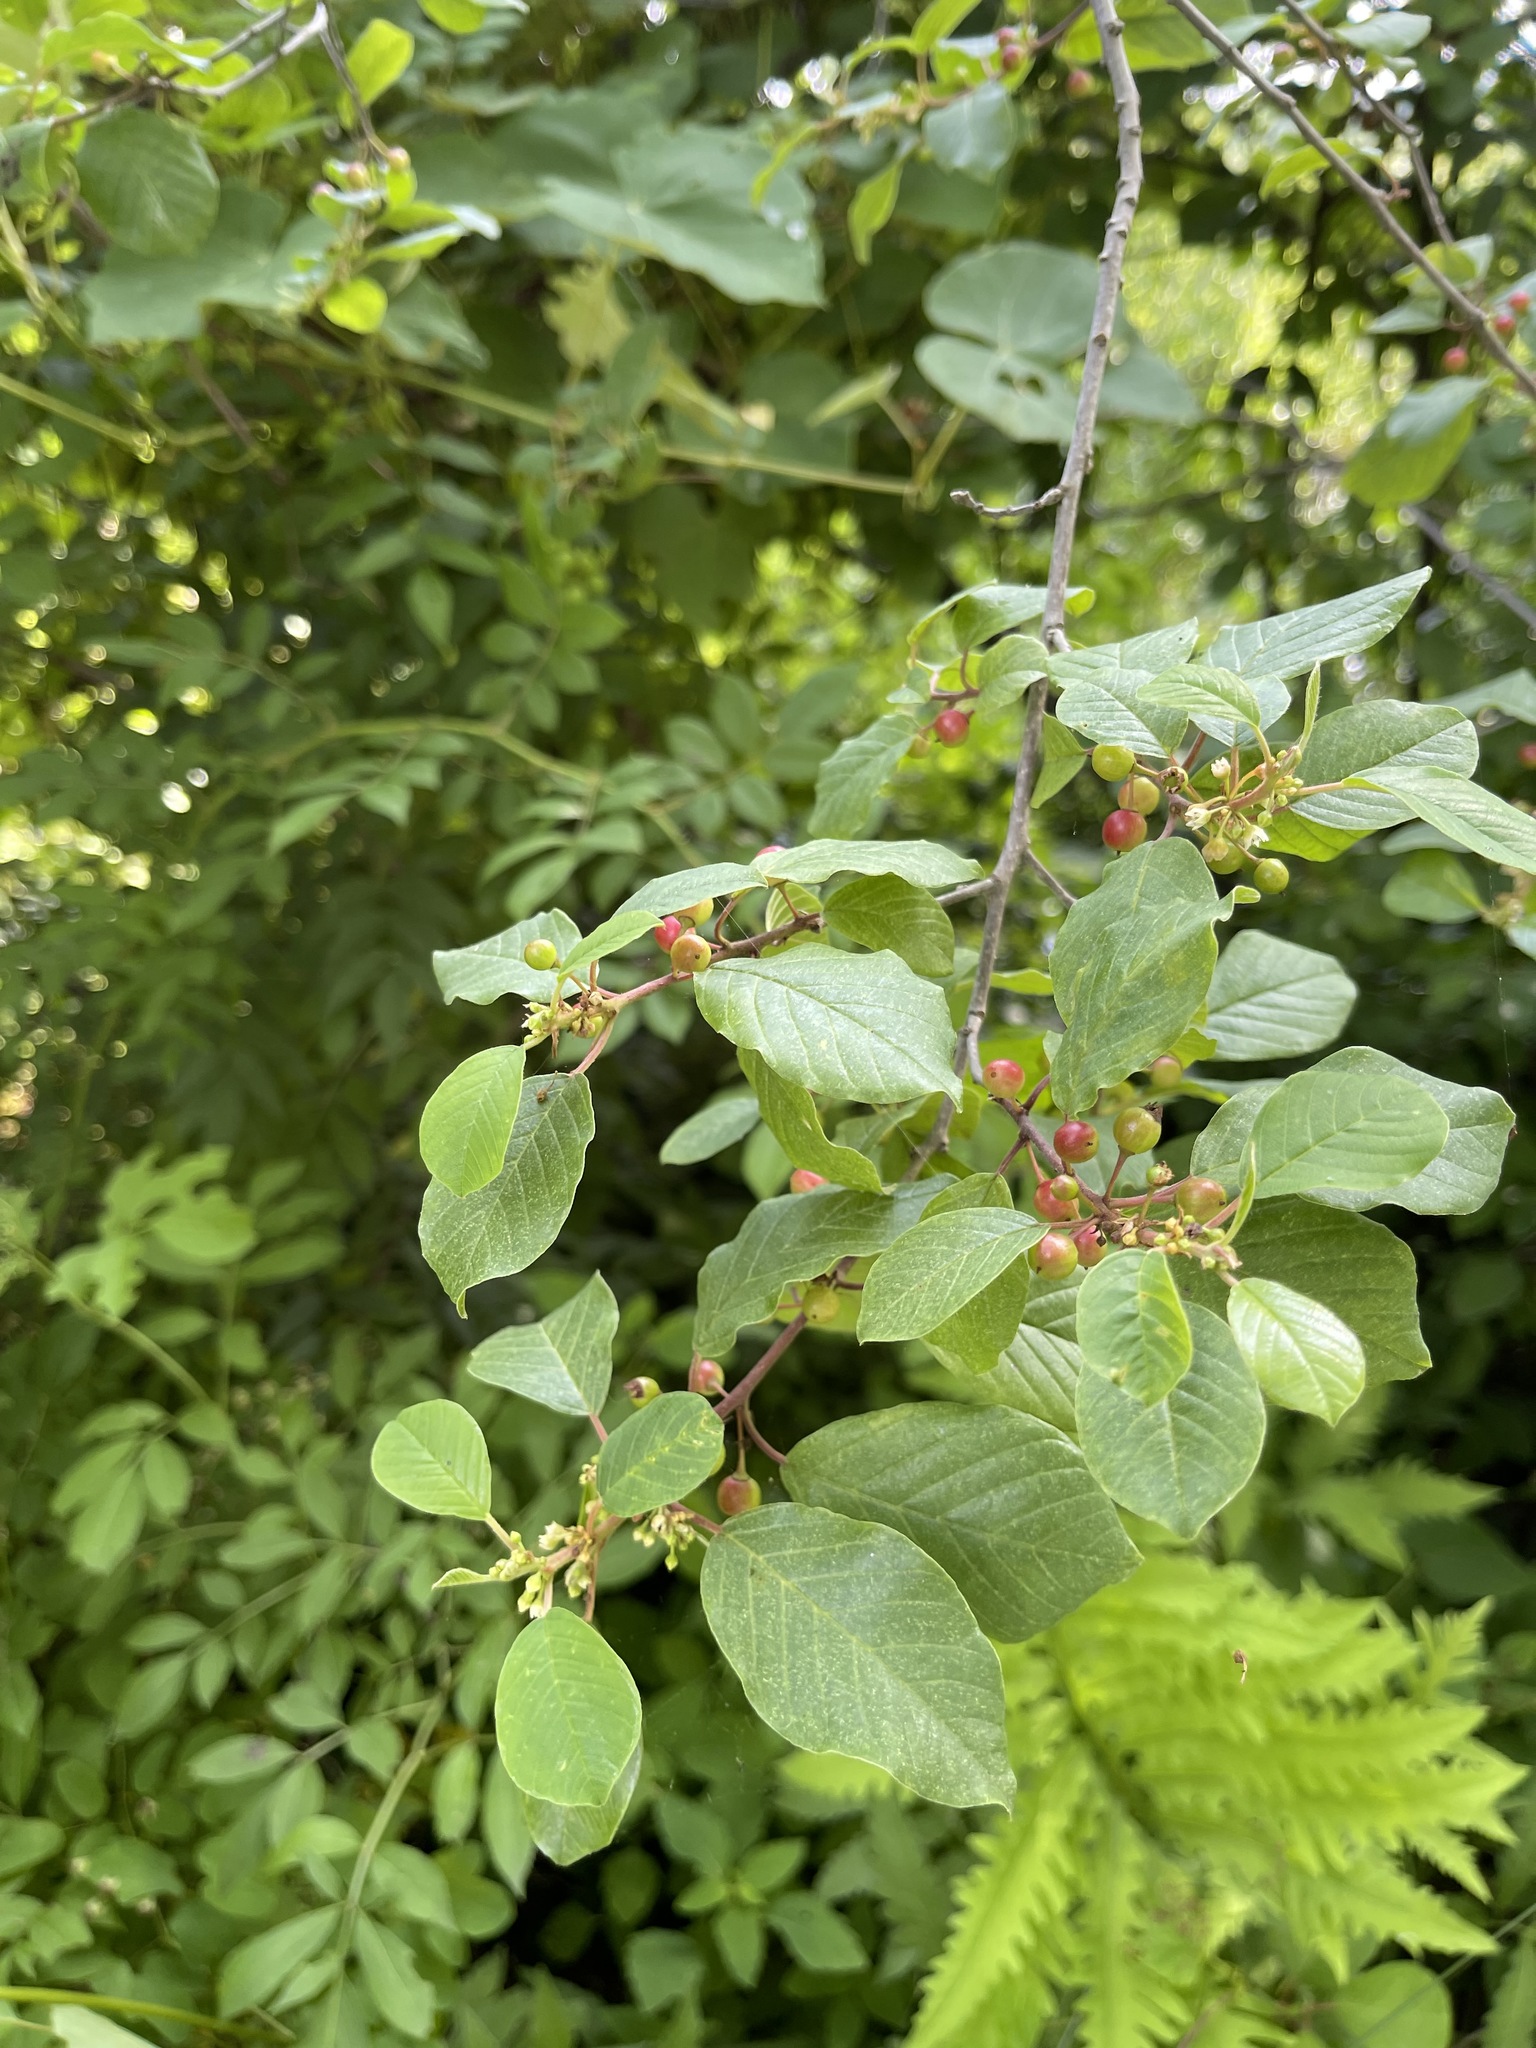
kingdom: Plantae
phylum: Tracheophyta
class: Magnoliopsida
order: Rosales
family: Rhamnaceae
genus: Frangula
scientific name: Frangula alnus
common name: Alder buckthorn
